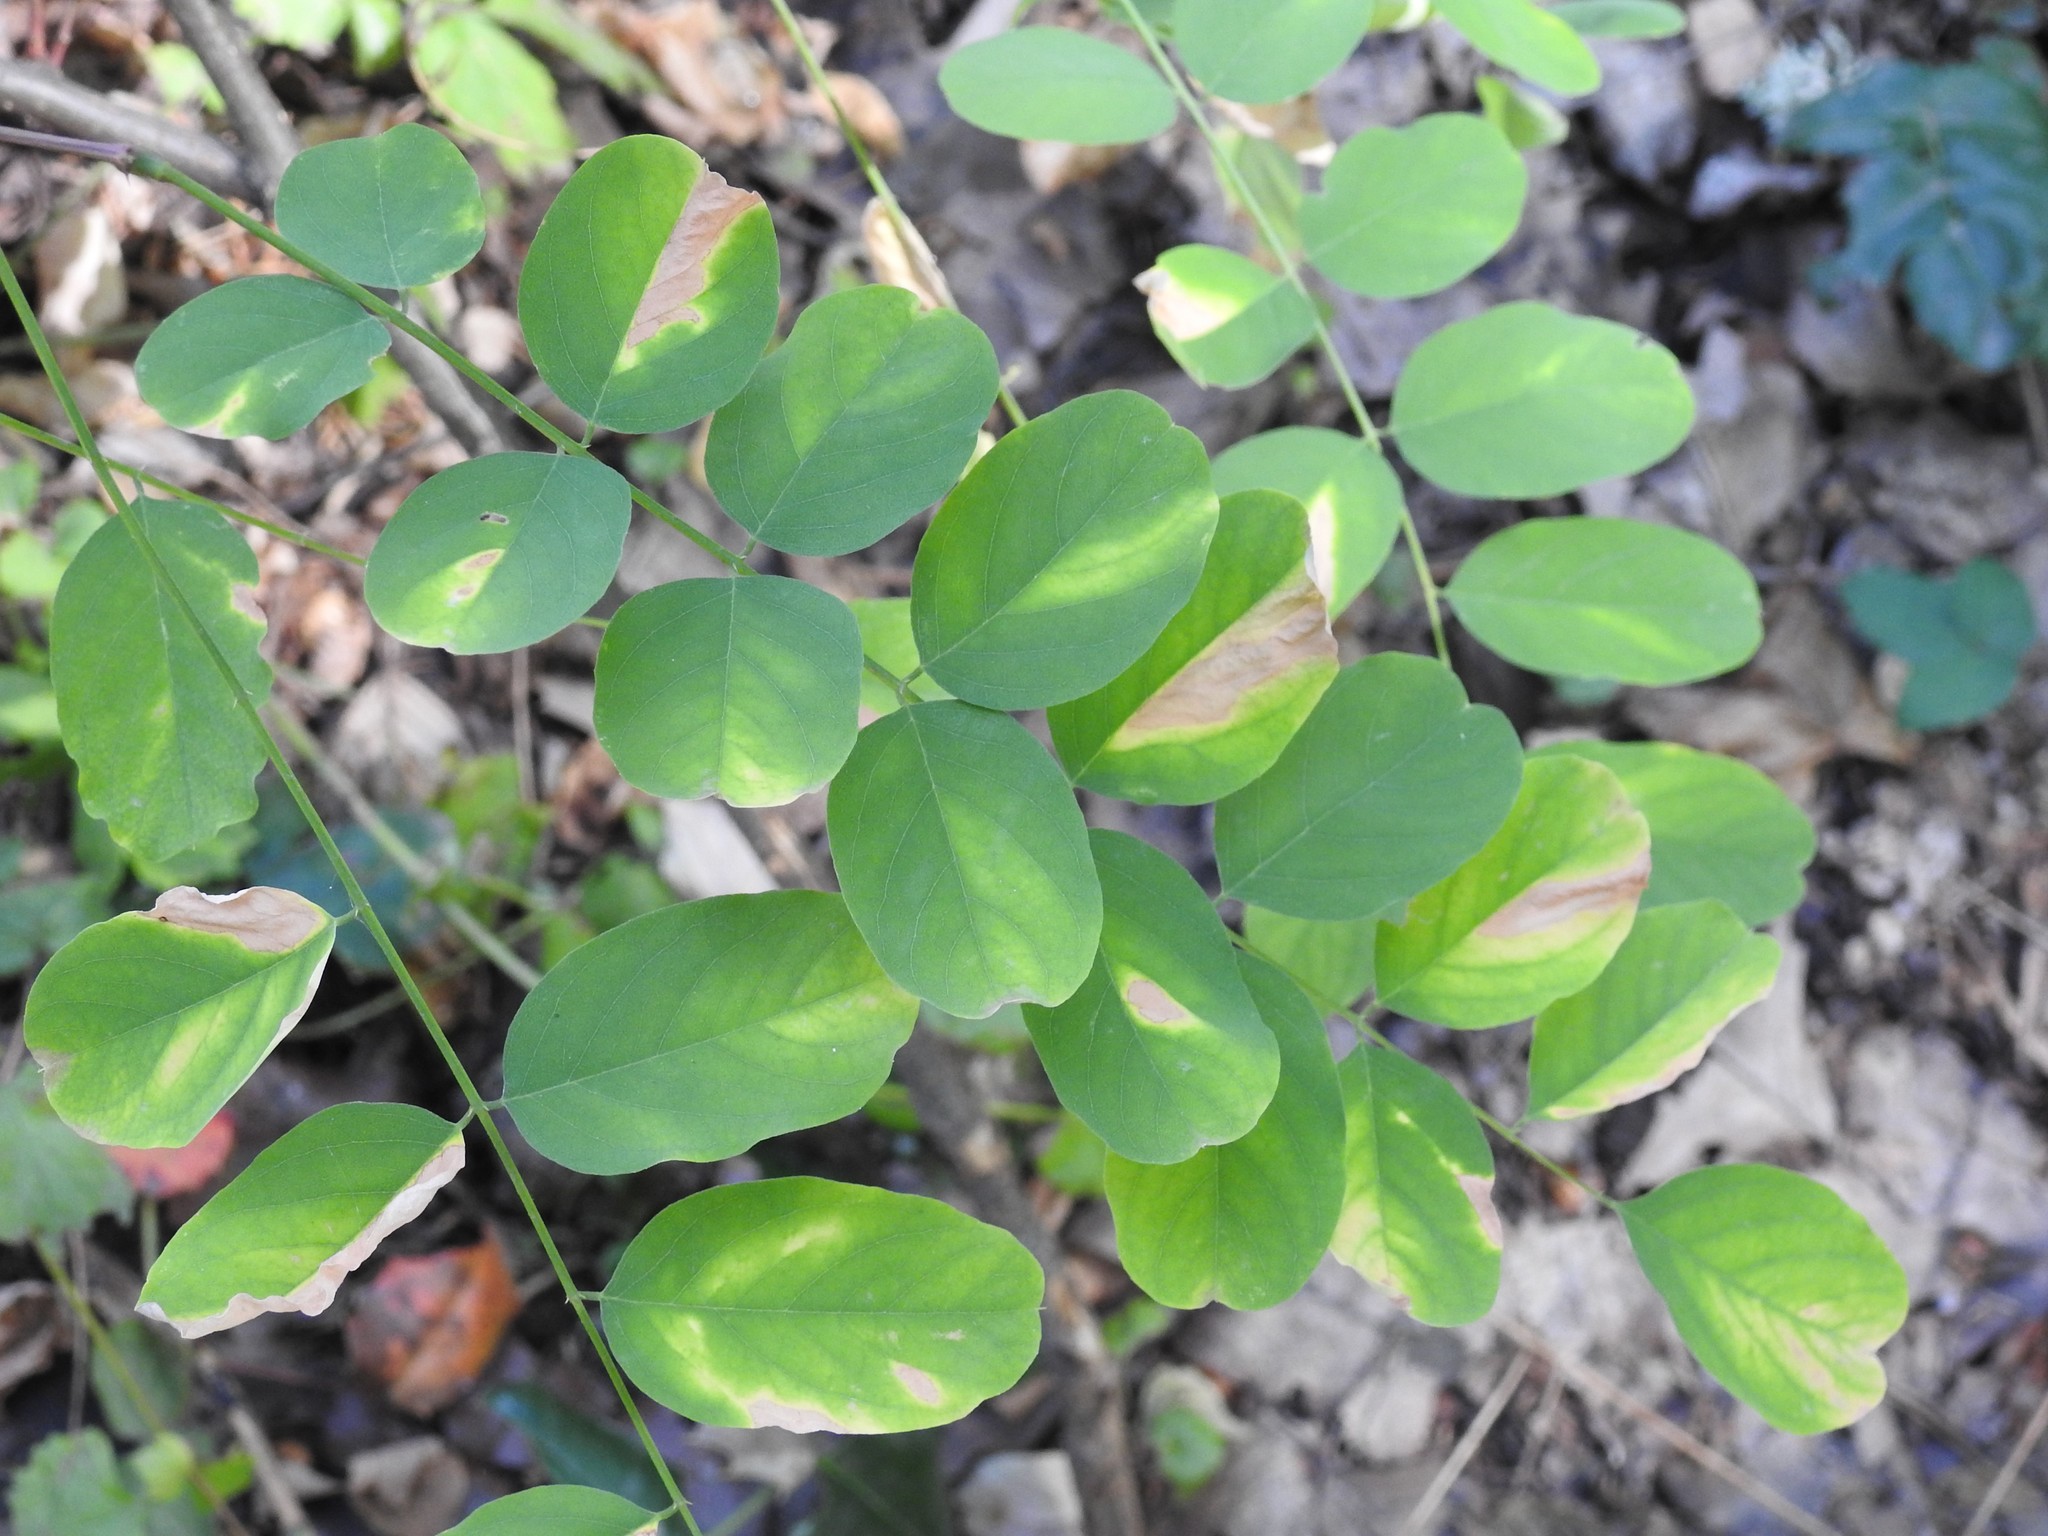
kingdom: Plantae
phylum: Tracheophyta
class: Magnoliopsida
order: Fabales
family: Fabaceae
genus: Robinia
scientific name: Robinia pseudoacacia
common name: Black locust
